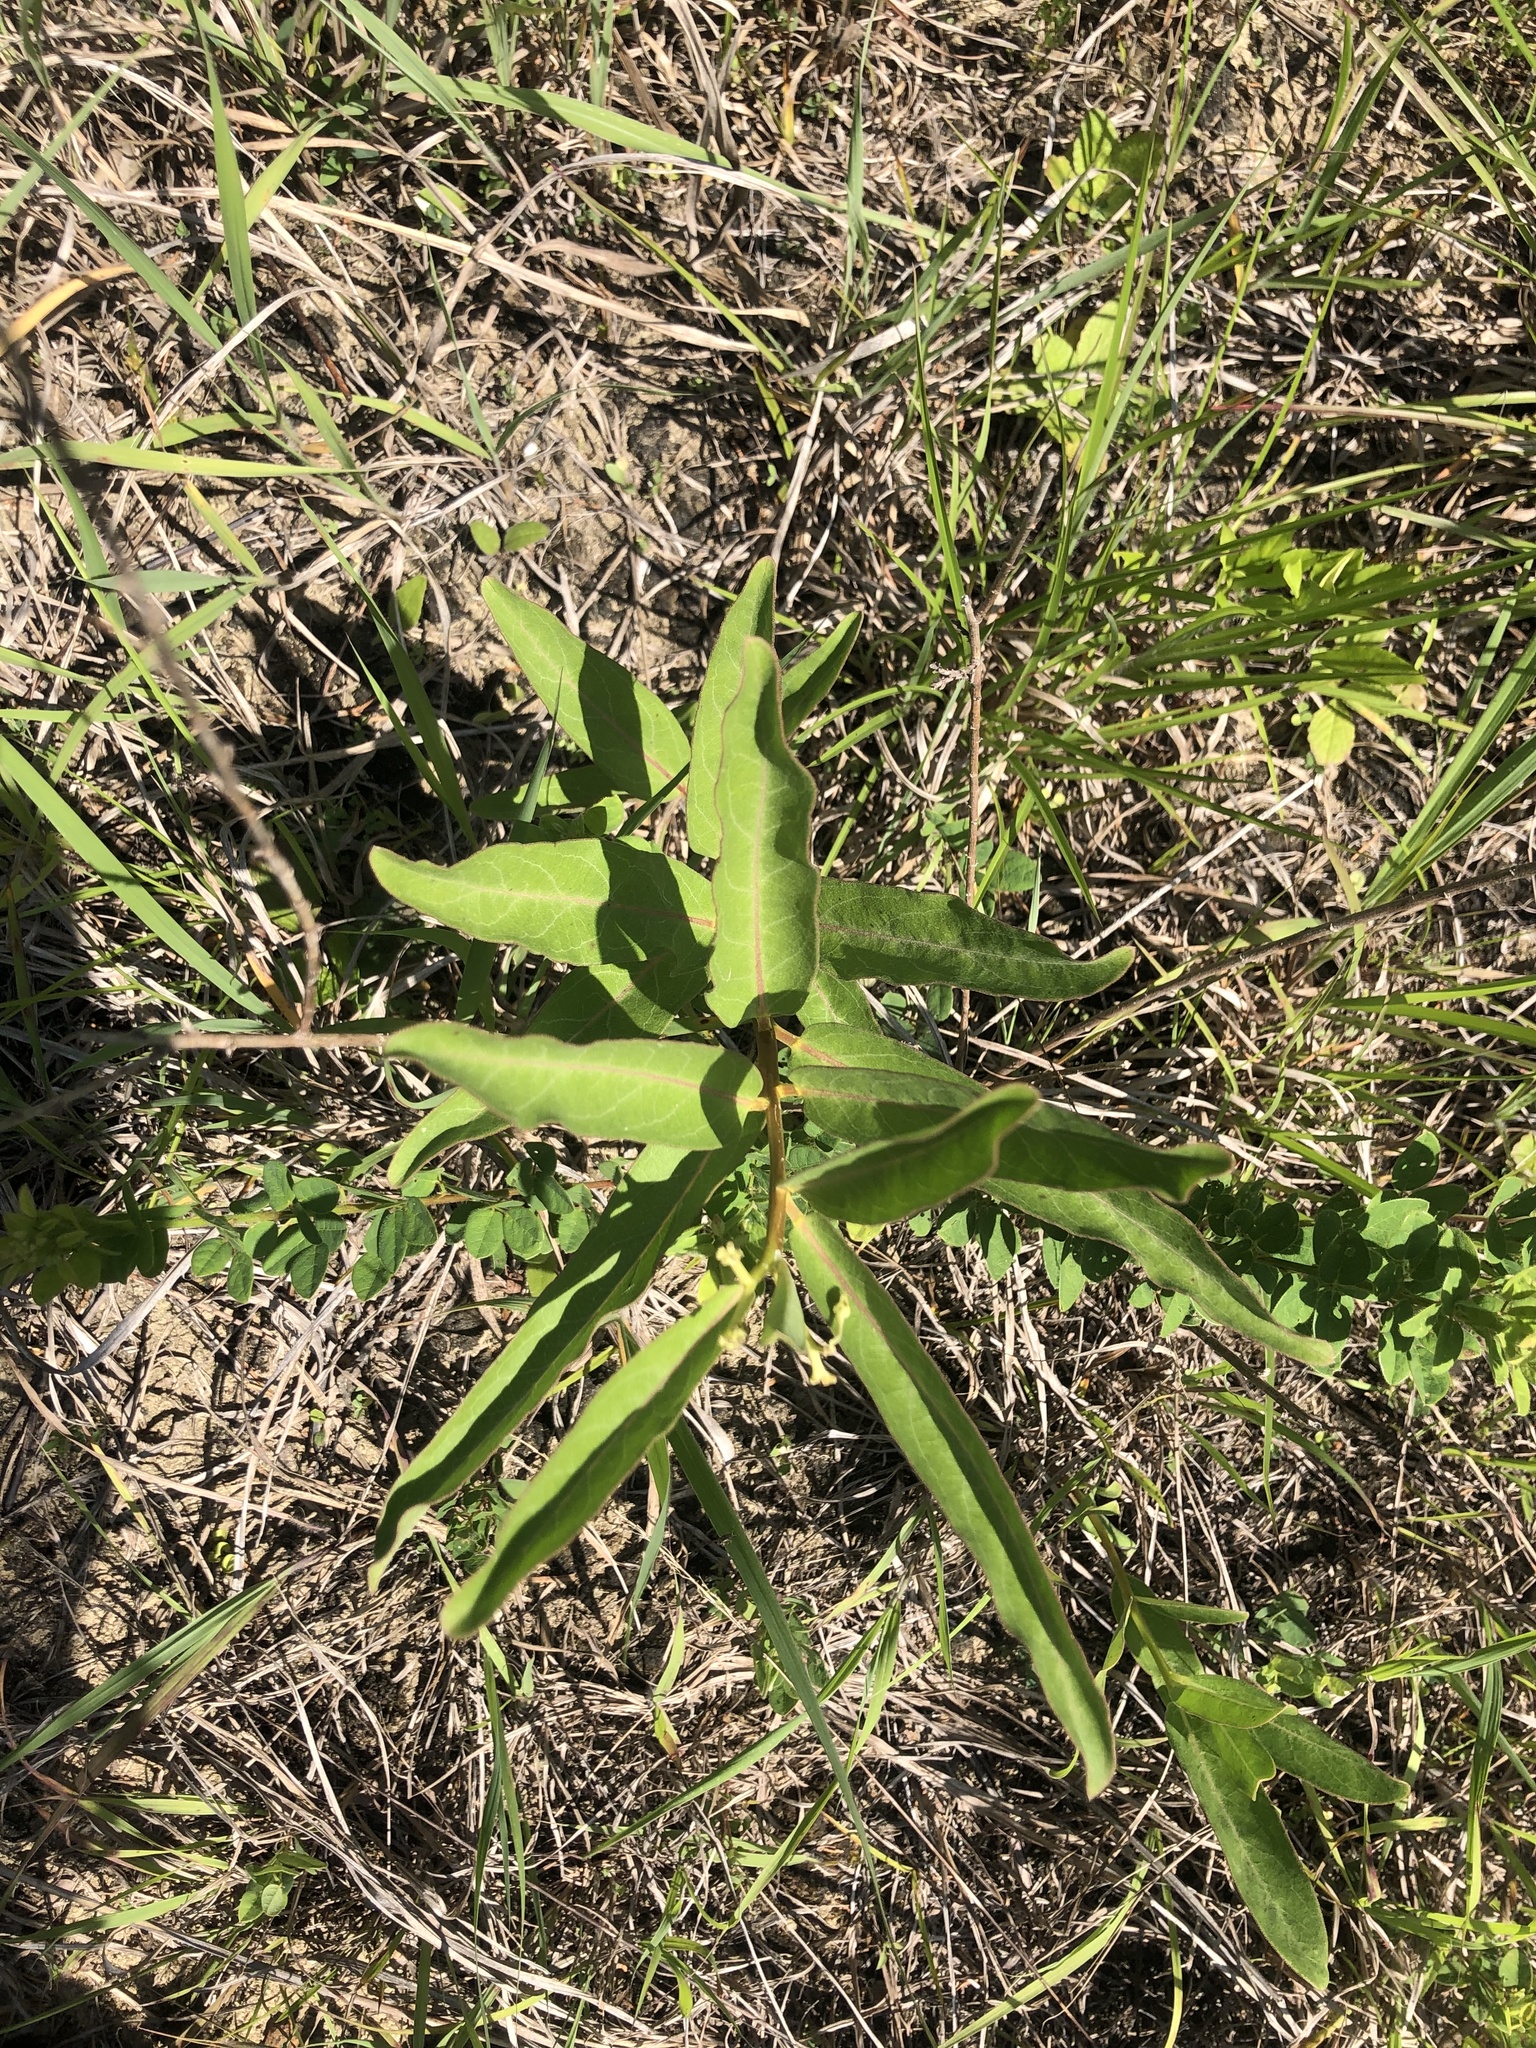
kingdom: Plantae
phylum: Tracheophyta
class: Magnoliopsida
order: Gentianales
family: Apocynaceae
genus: Asclepias
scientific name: Asclepias viridis
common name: Antelope-horns
